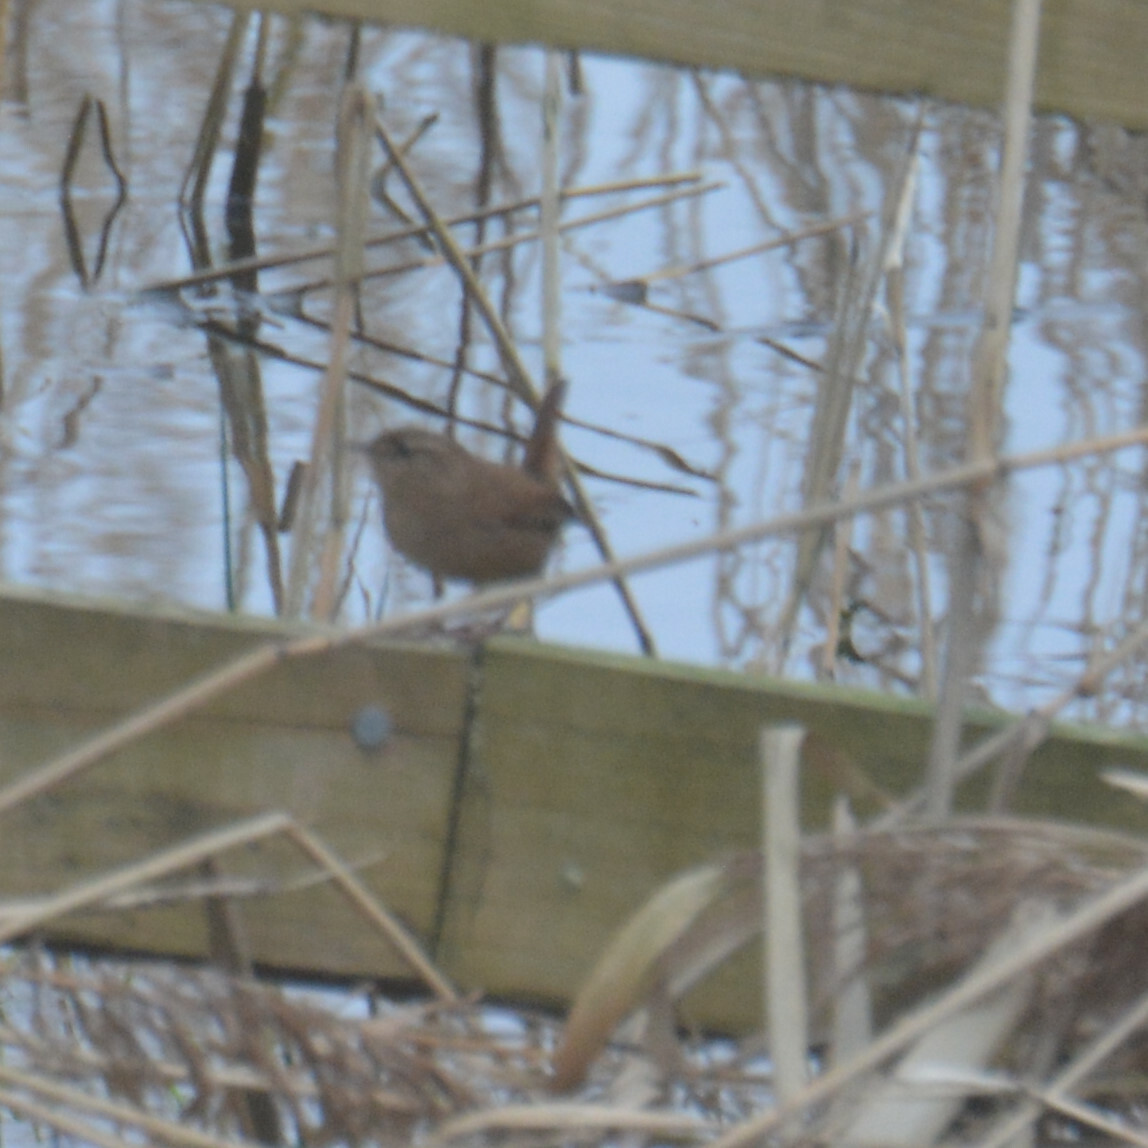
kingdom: Animalia
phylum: Chordata
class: Aves
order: Passeriformes
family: Troglodytidae
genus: Troglodytes
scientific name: Troglodytes troglodytes
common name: Eurasian wren
